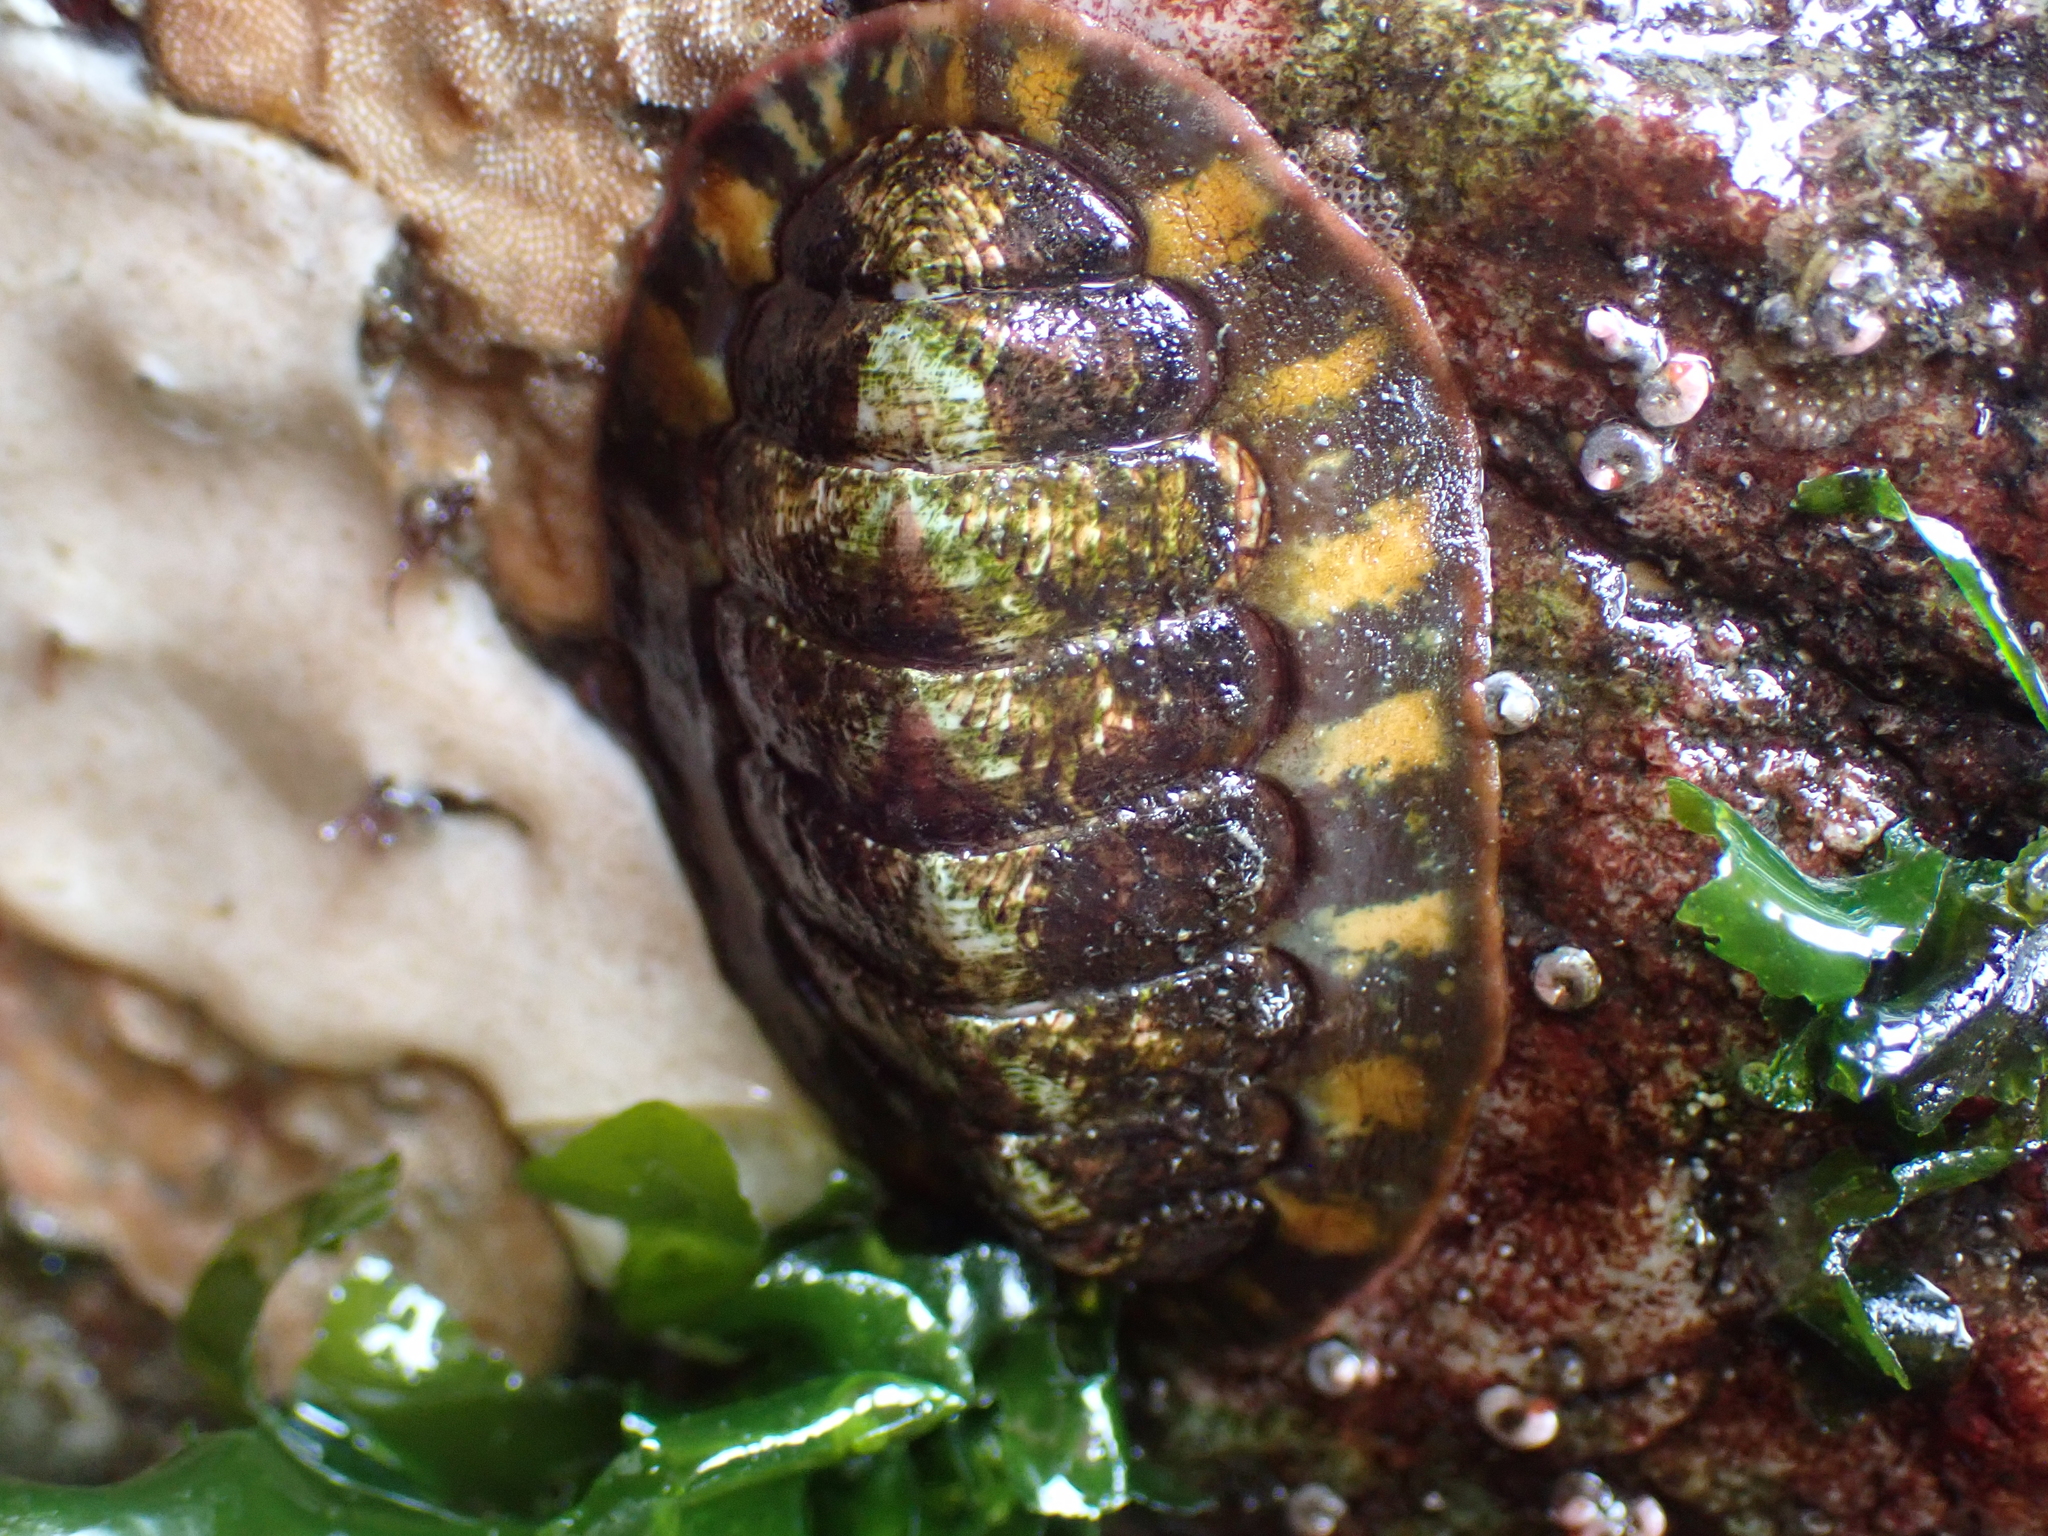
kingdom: Animalia
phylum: Mollusca
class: Polyplacophora
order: Chitonida
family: Tonicellidae
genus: Tonicella
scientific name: Tonicella lineata
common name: Lined chiton
